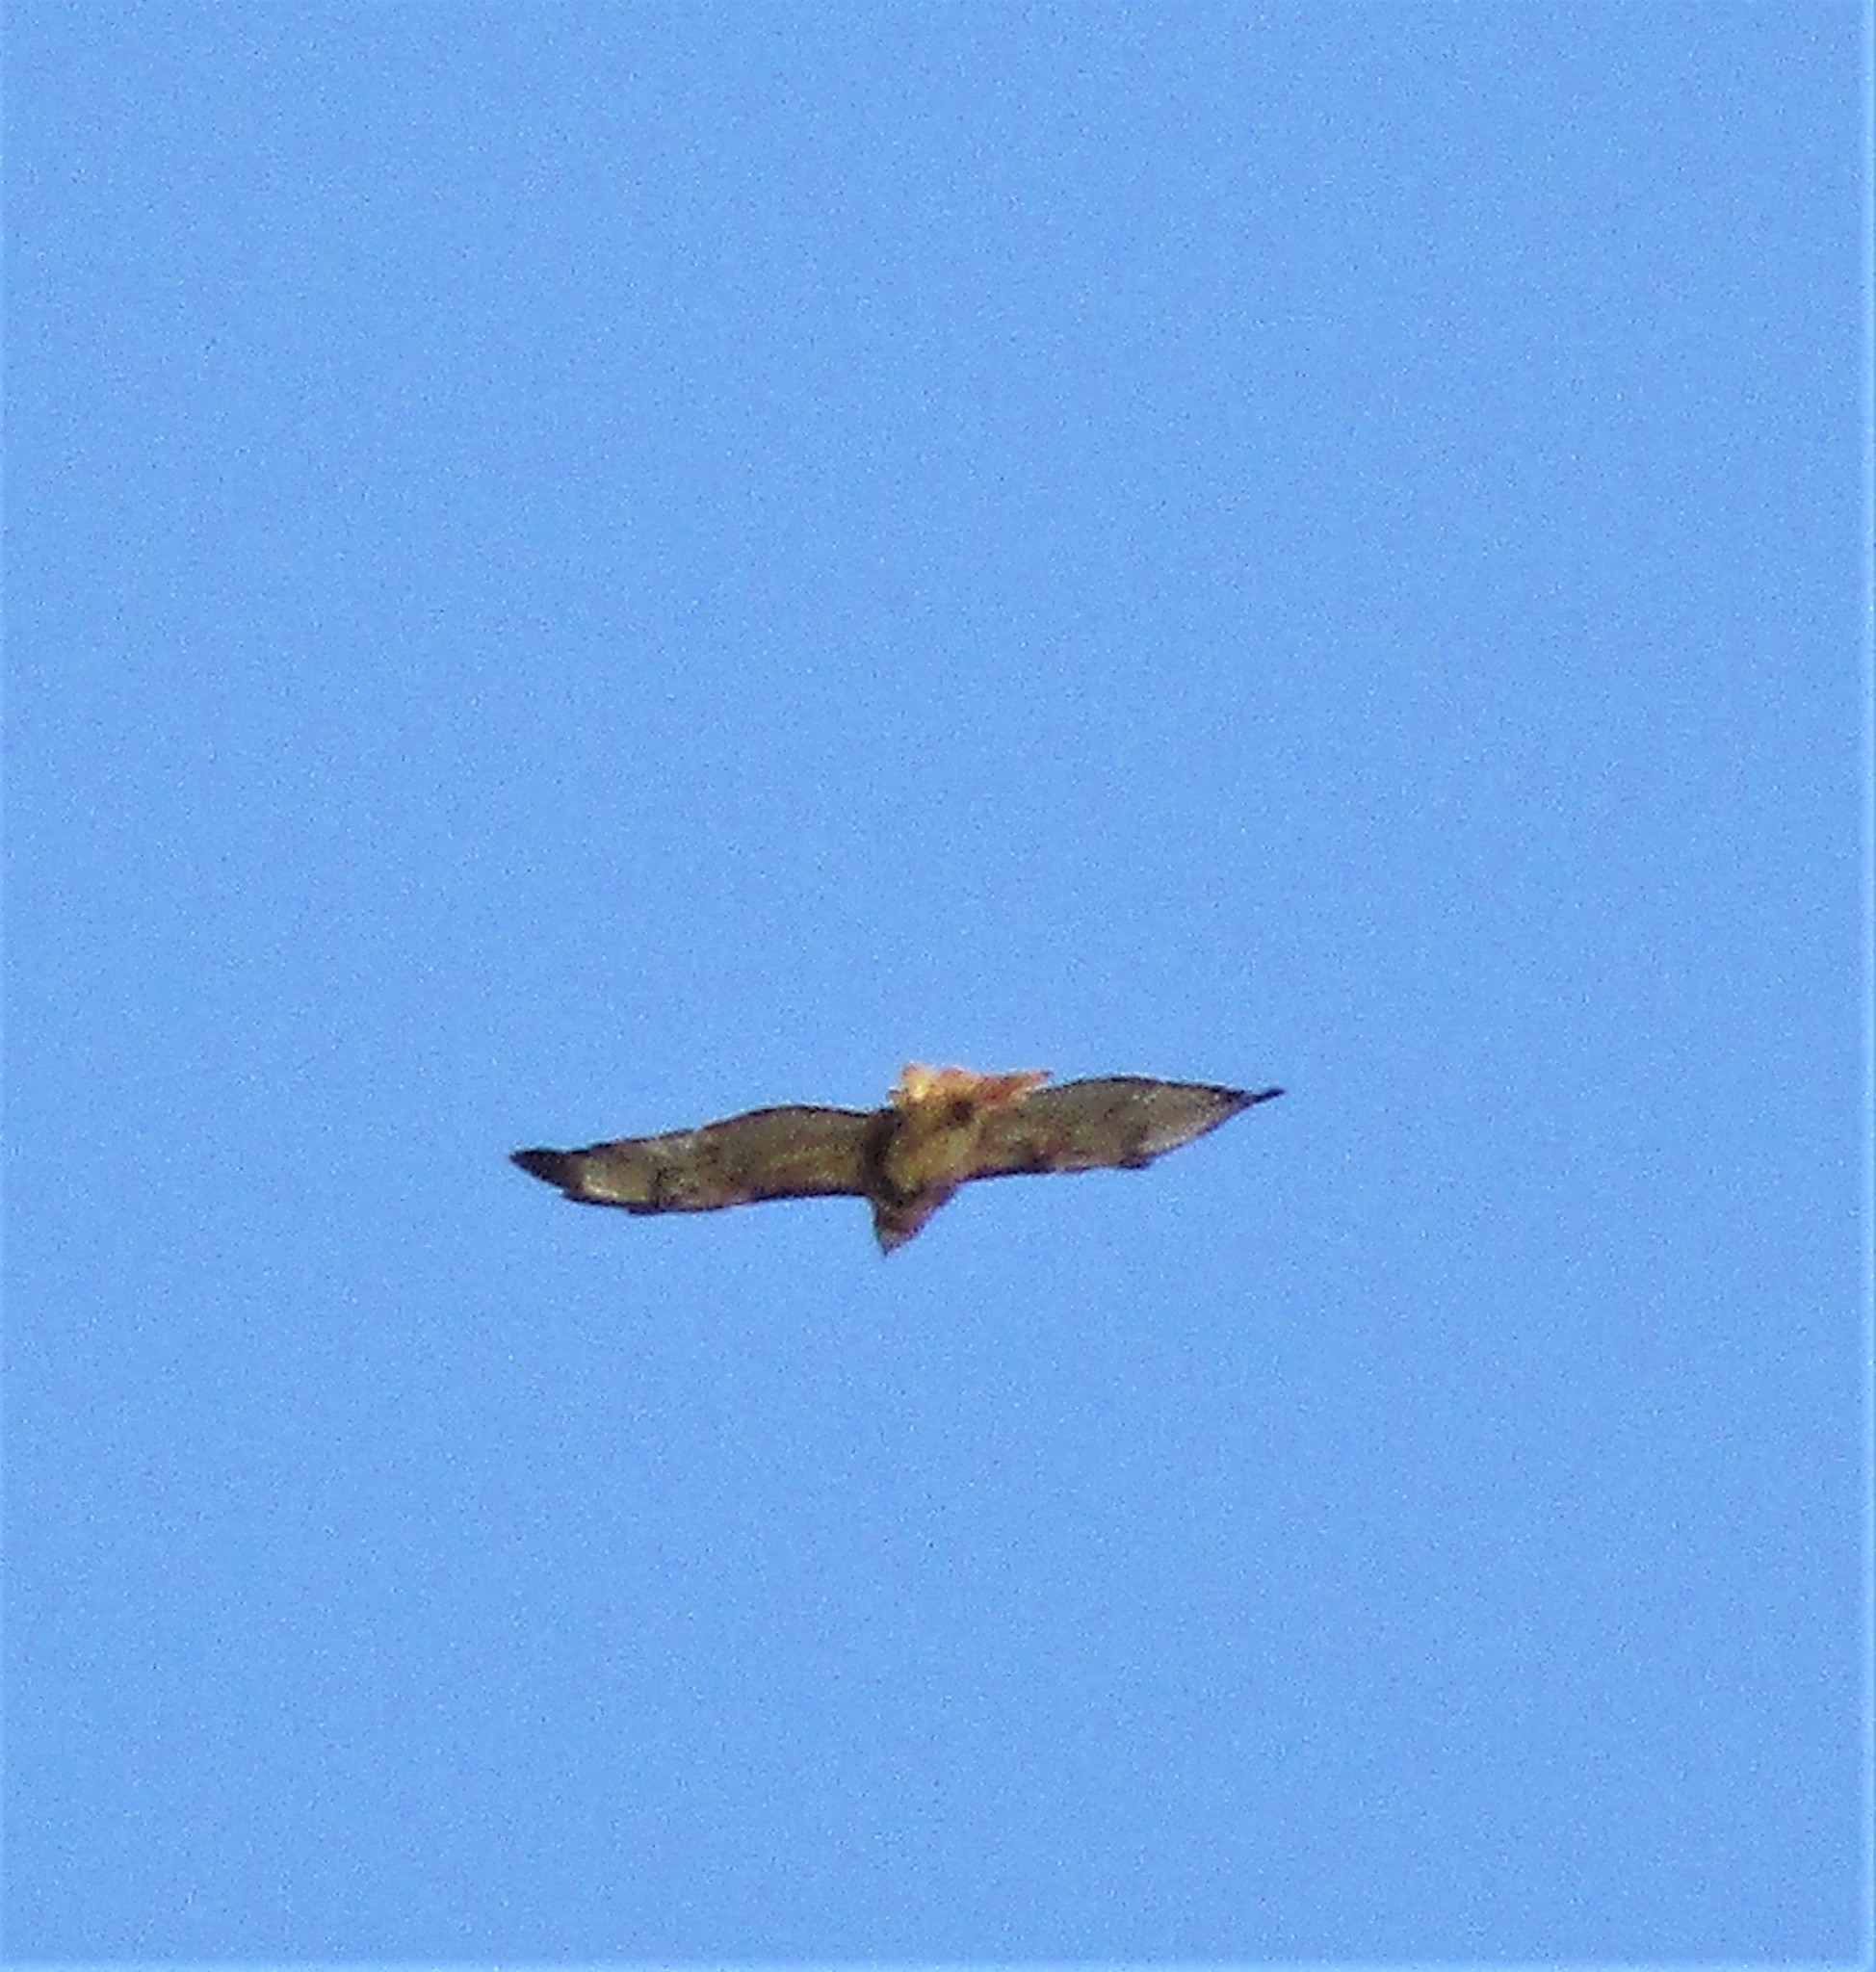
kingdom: Animalia
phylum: Chordata
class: Aves
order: Accipitriformes
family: Accipitridae
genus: Buteo
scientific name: Buteo jamaicensis
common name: Red-tailed hawk
